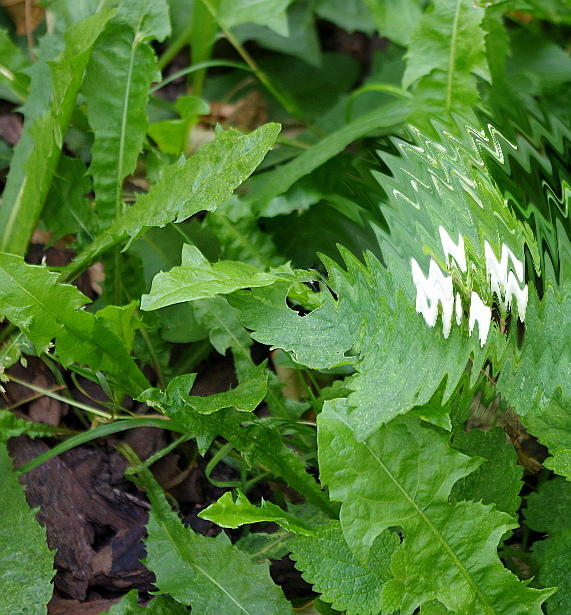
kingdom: Plantae
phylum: Tracheophyta
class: Magnoliopsida
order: Asterales
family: Asteraceae
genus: Taraxacum
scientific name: Taraxacum officinale
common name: Common dandelion
